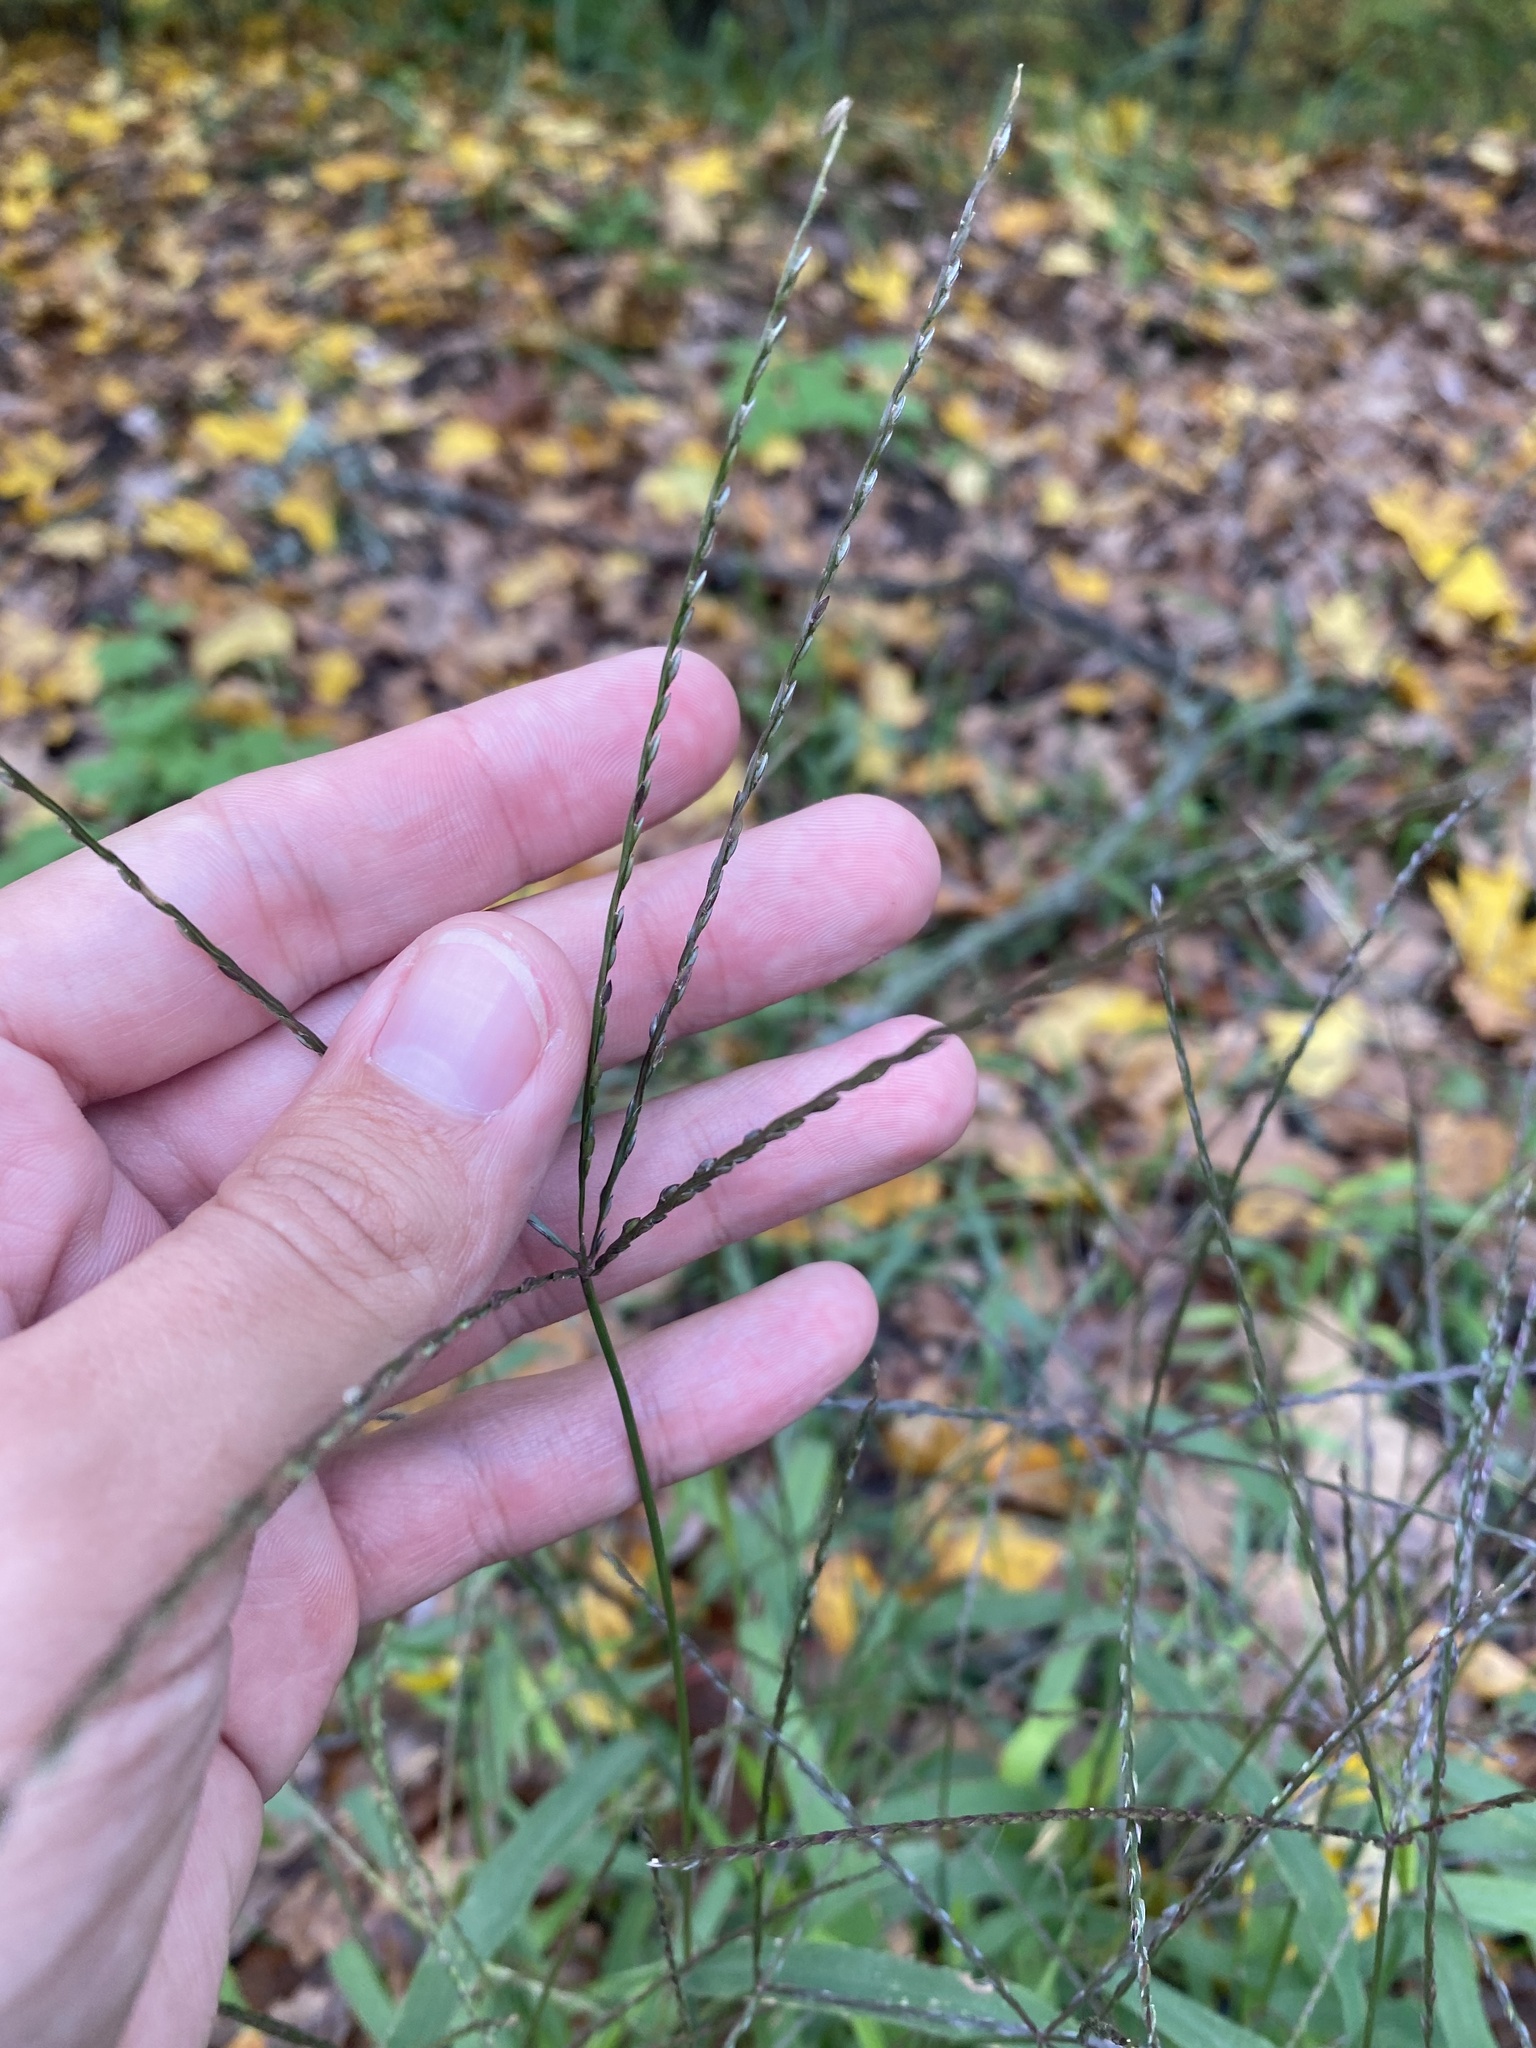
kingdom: Plantae
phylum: Tracheophyta
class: Liliopsida
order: Poales
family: Poaceae
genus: Digitaria
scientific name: Digitaria sanguinalis
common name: Hairy crabgrass
